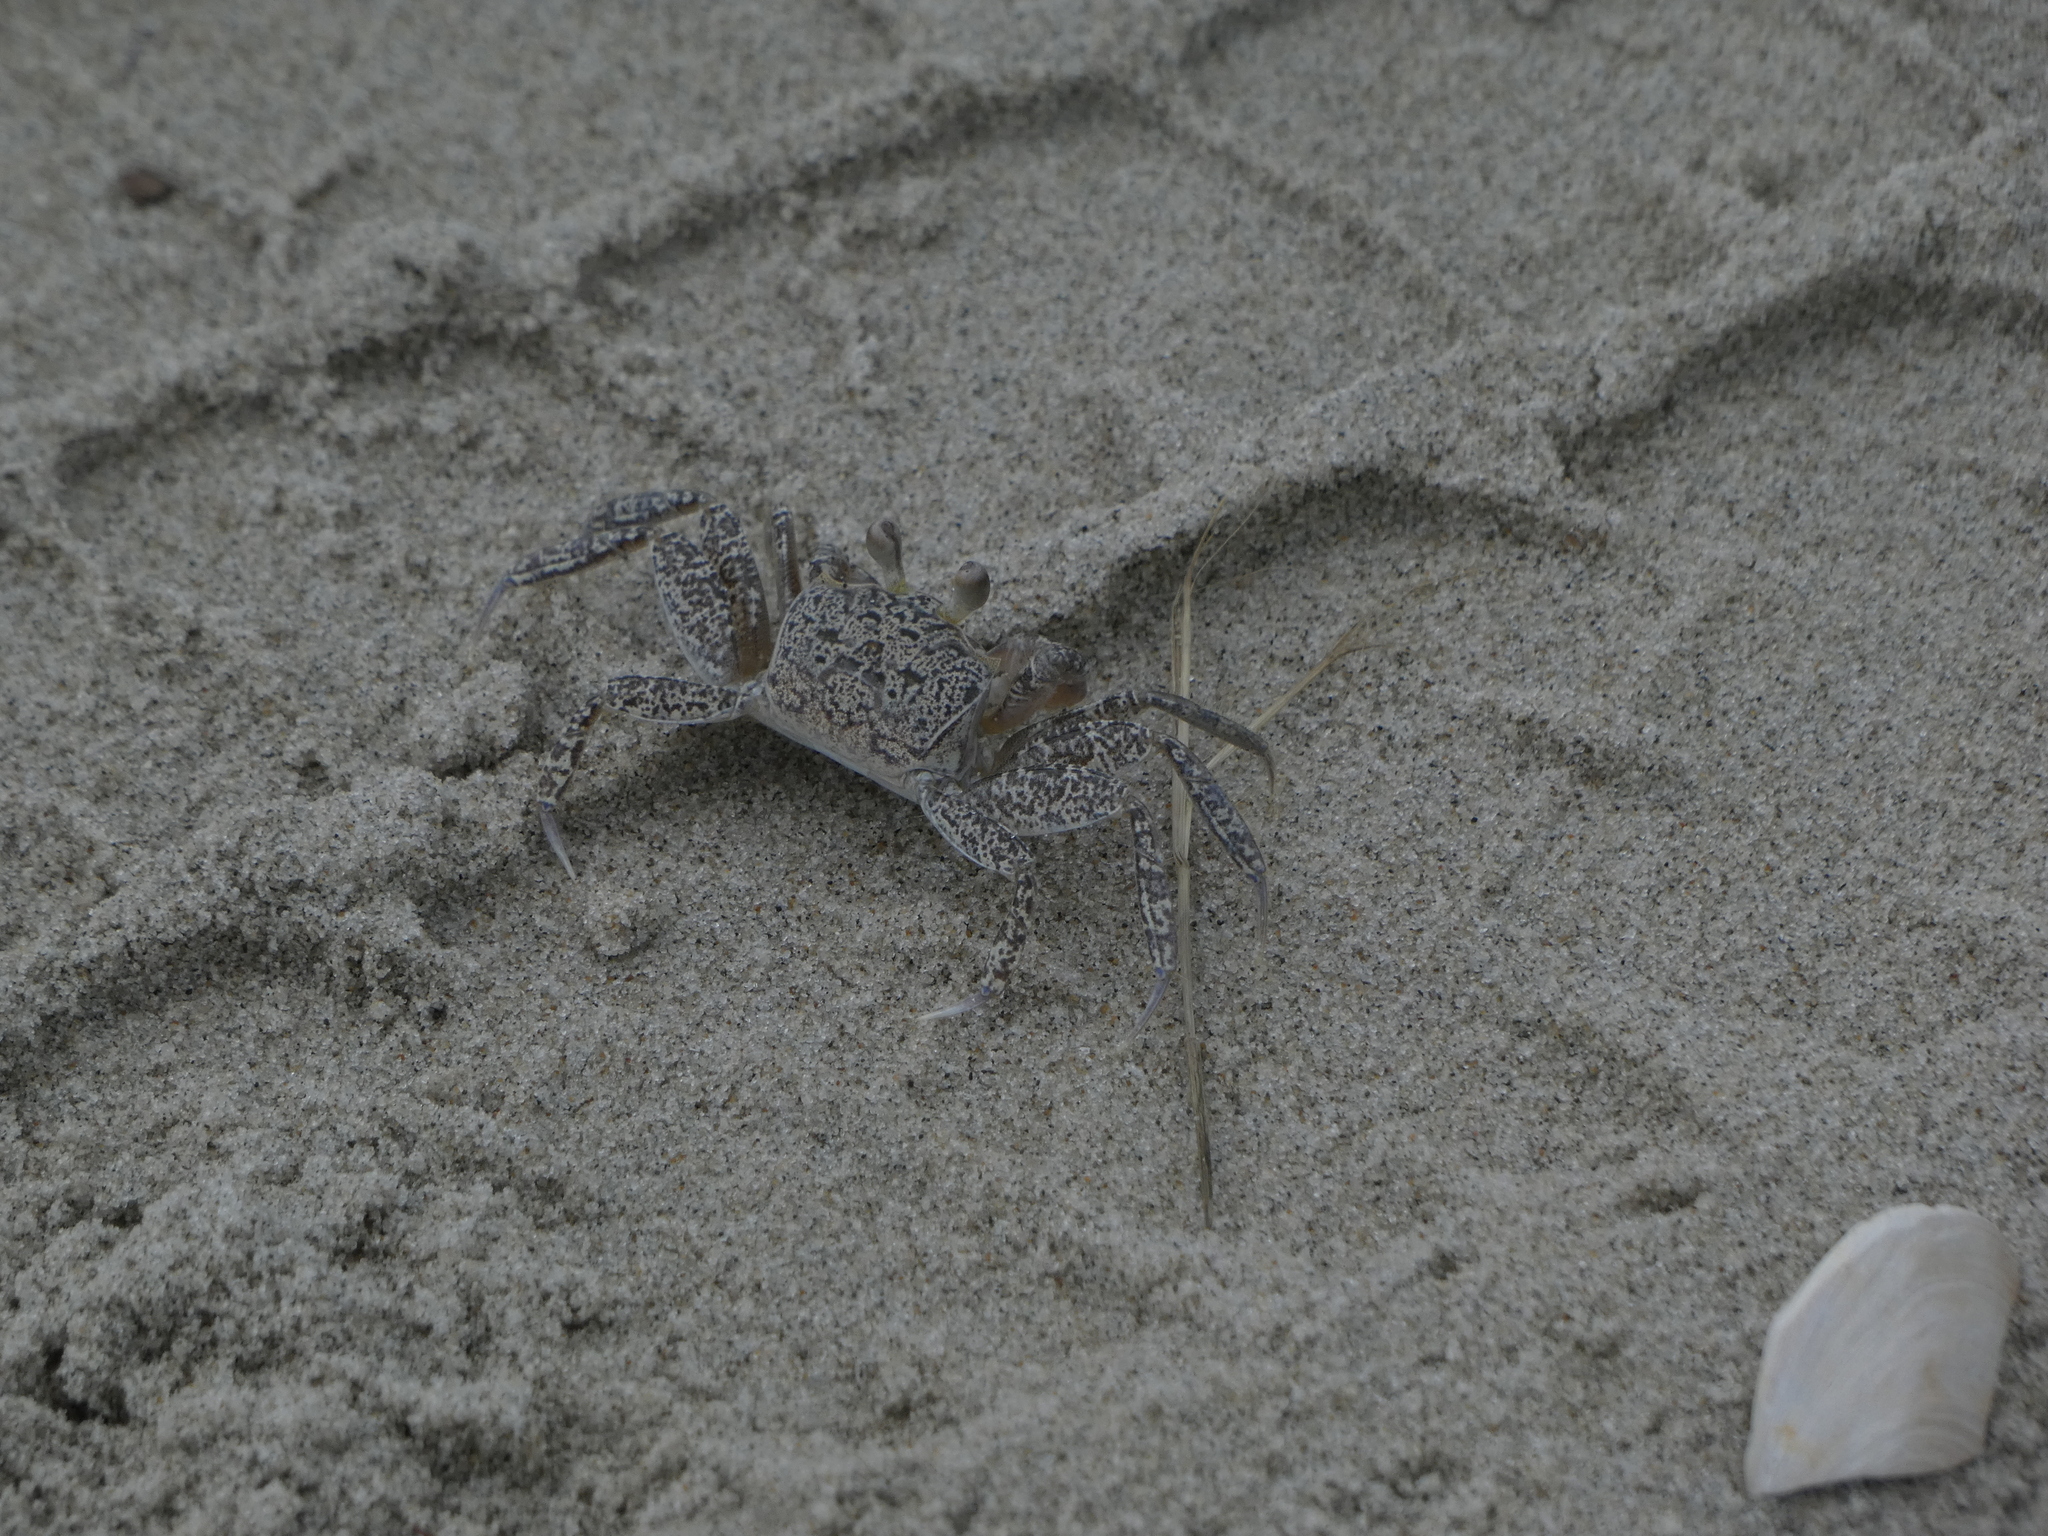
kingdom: Animalia
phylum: Arthropoda
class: Malacostraca
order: Decapoda
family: Ocypodidae
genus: Ocypode
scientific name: Ocypode quadrata
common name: Ghost crab
